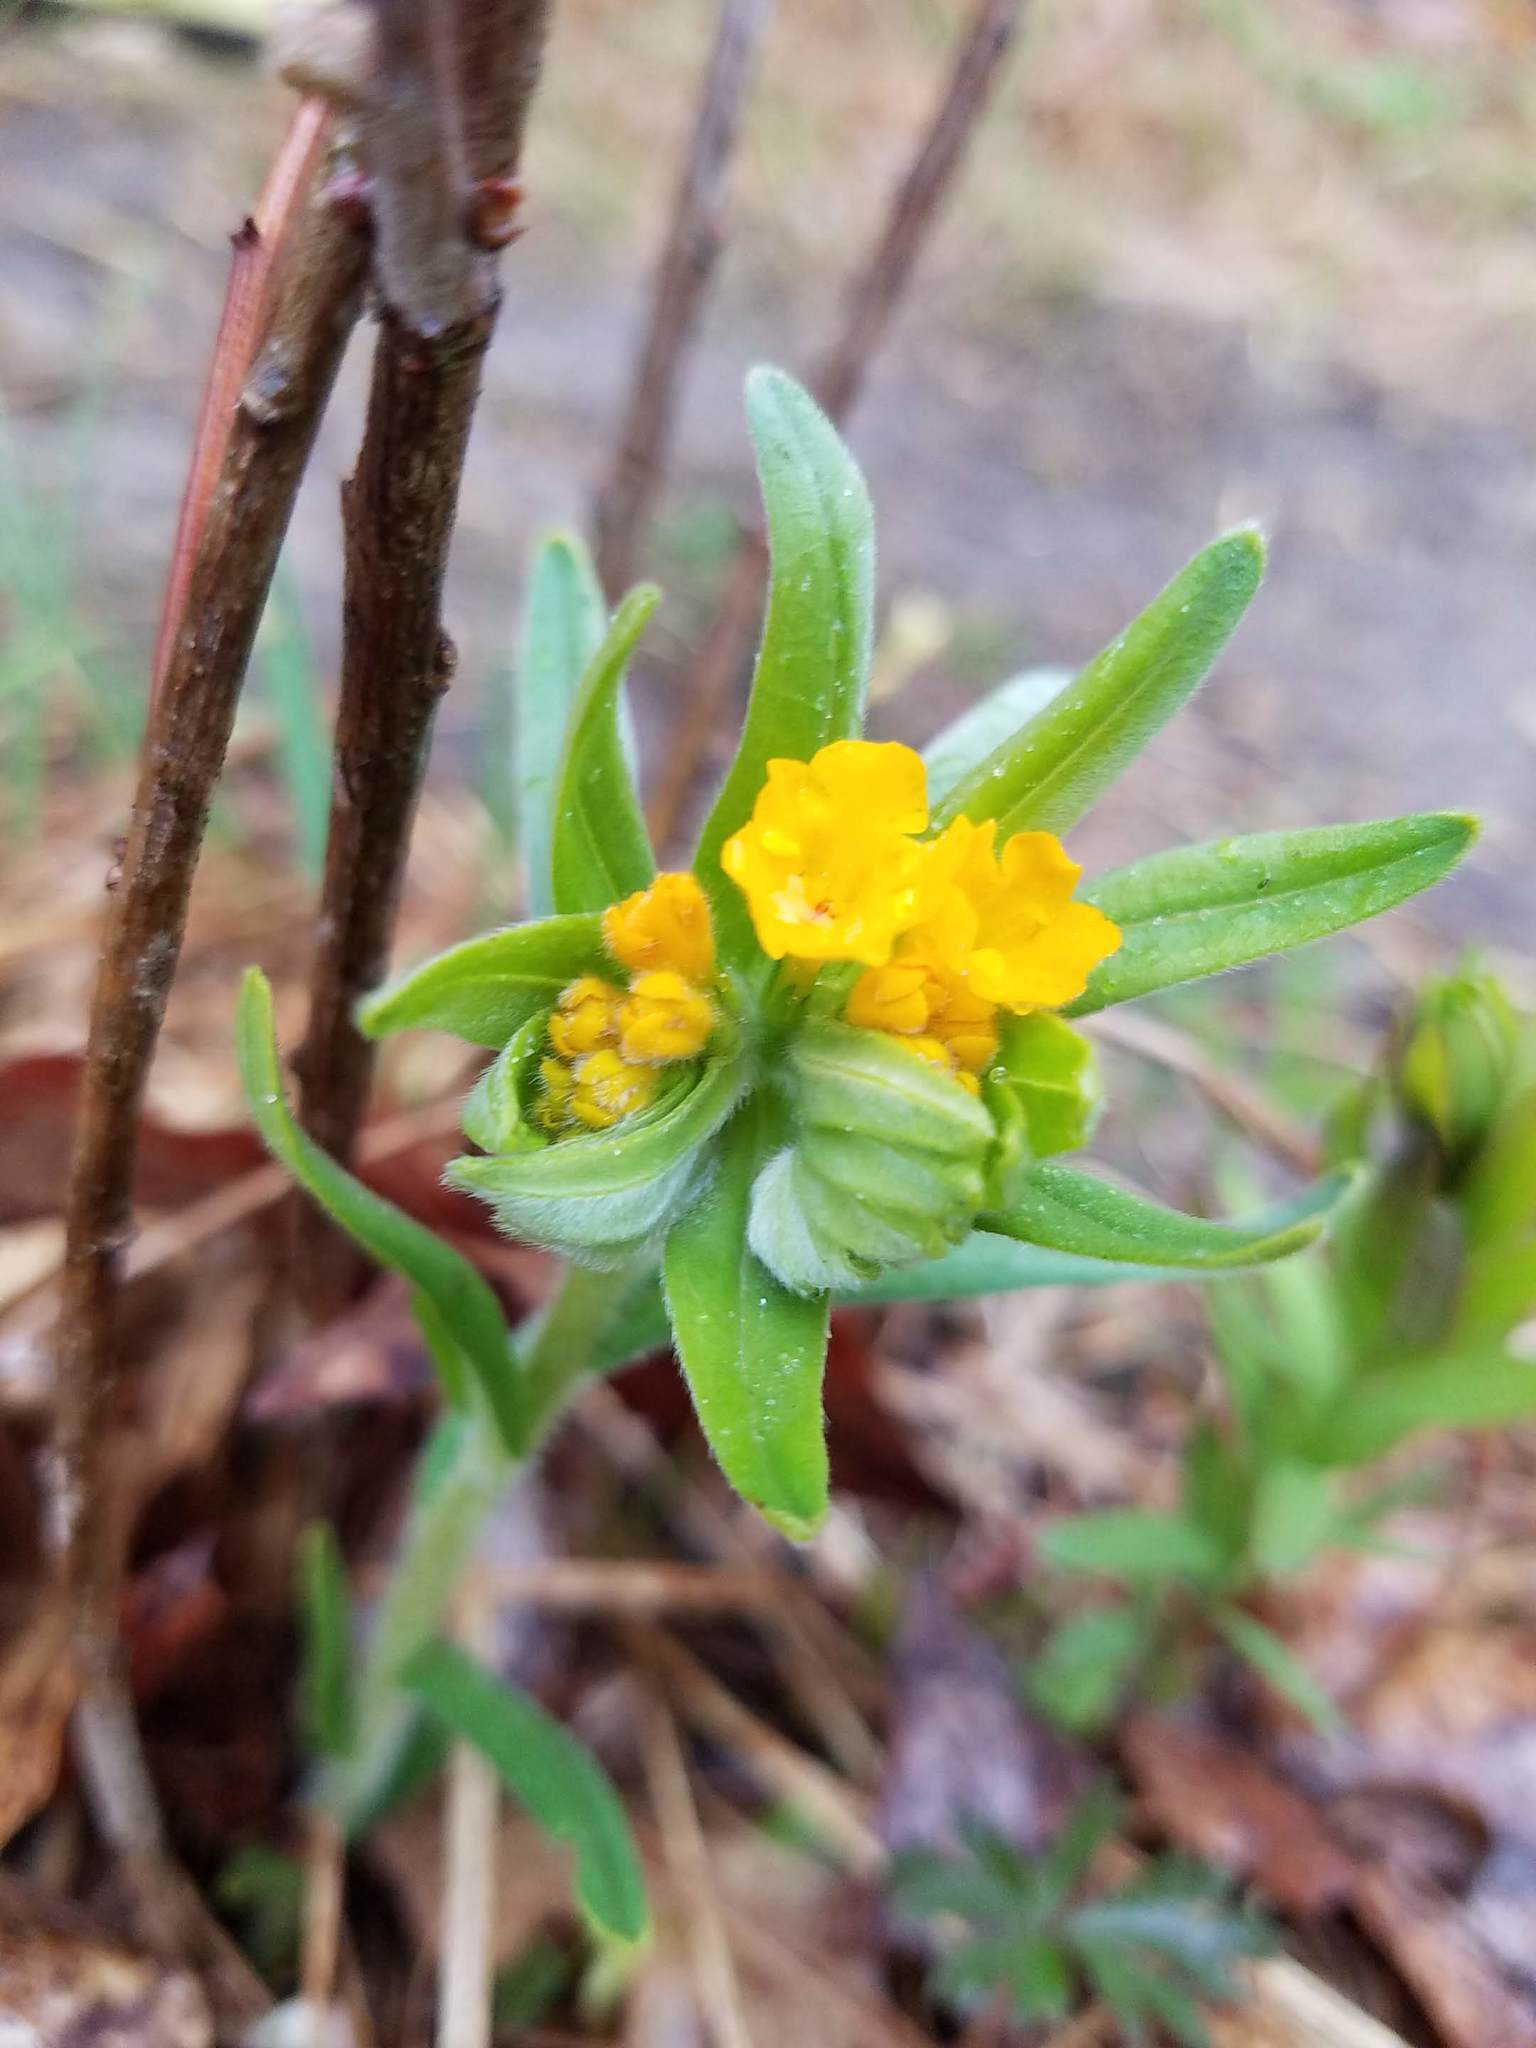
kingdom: Plantae
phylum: Tracheophyta
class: Magnoliopsida
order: Boraginales
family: Boraginaceae
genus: Lithospermum
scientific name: Lithospermum canescens
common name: Hoary puccoon
